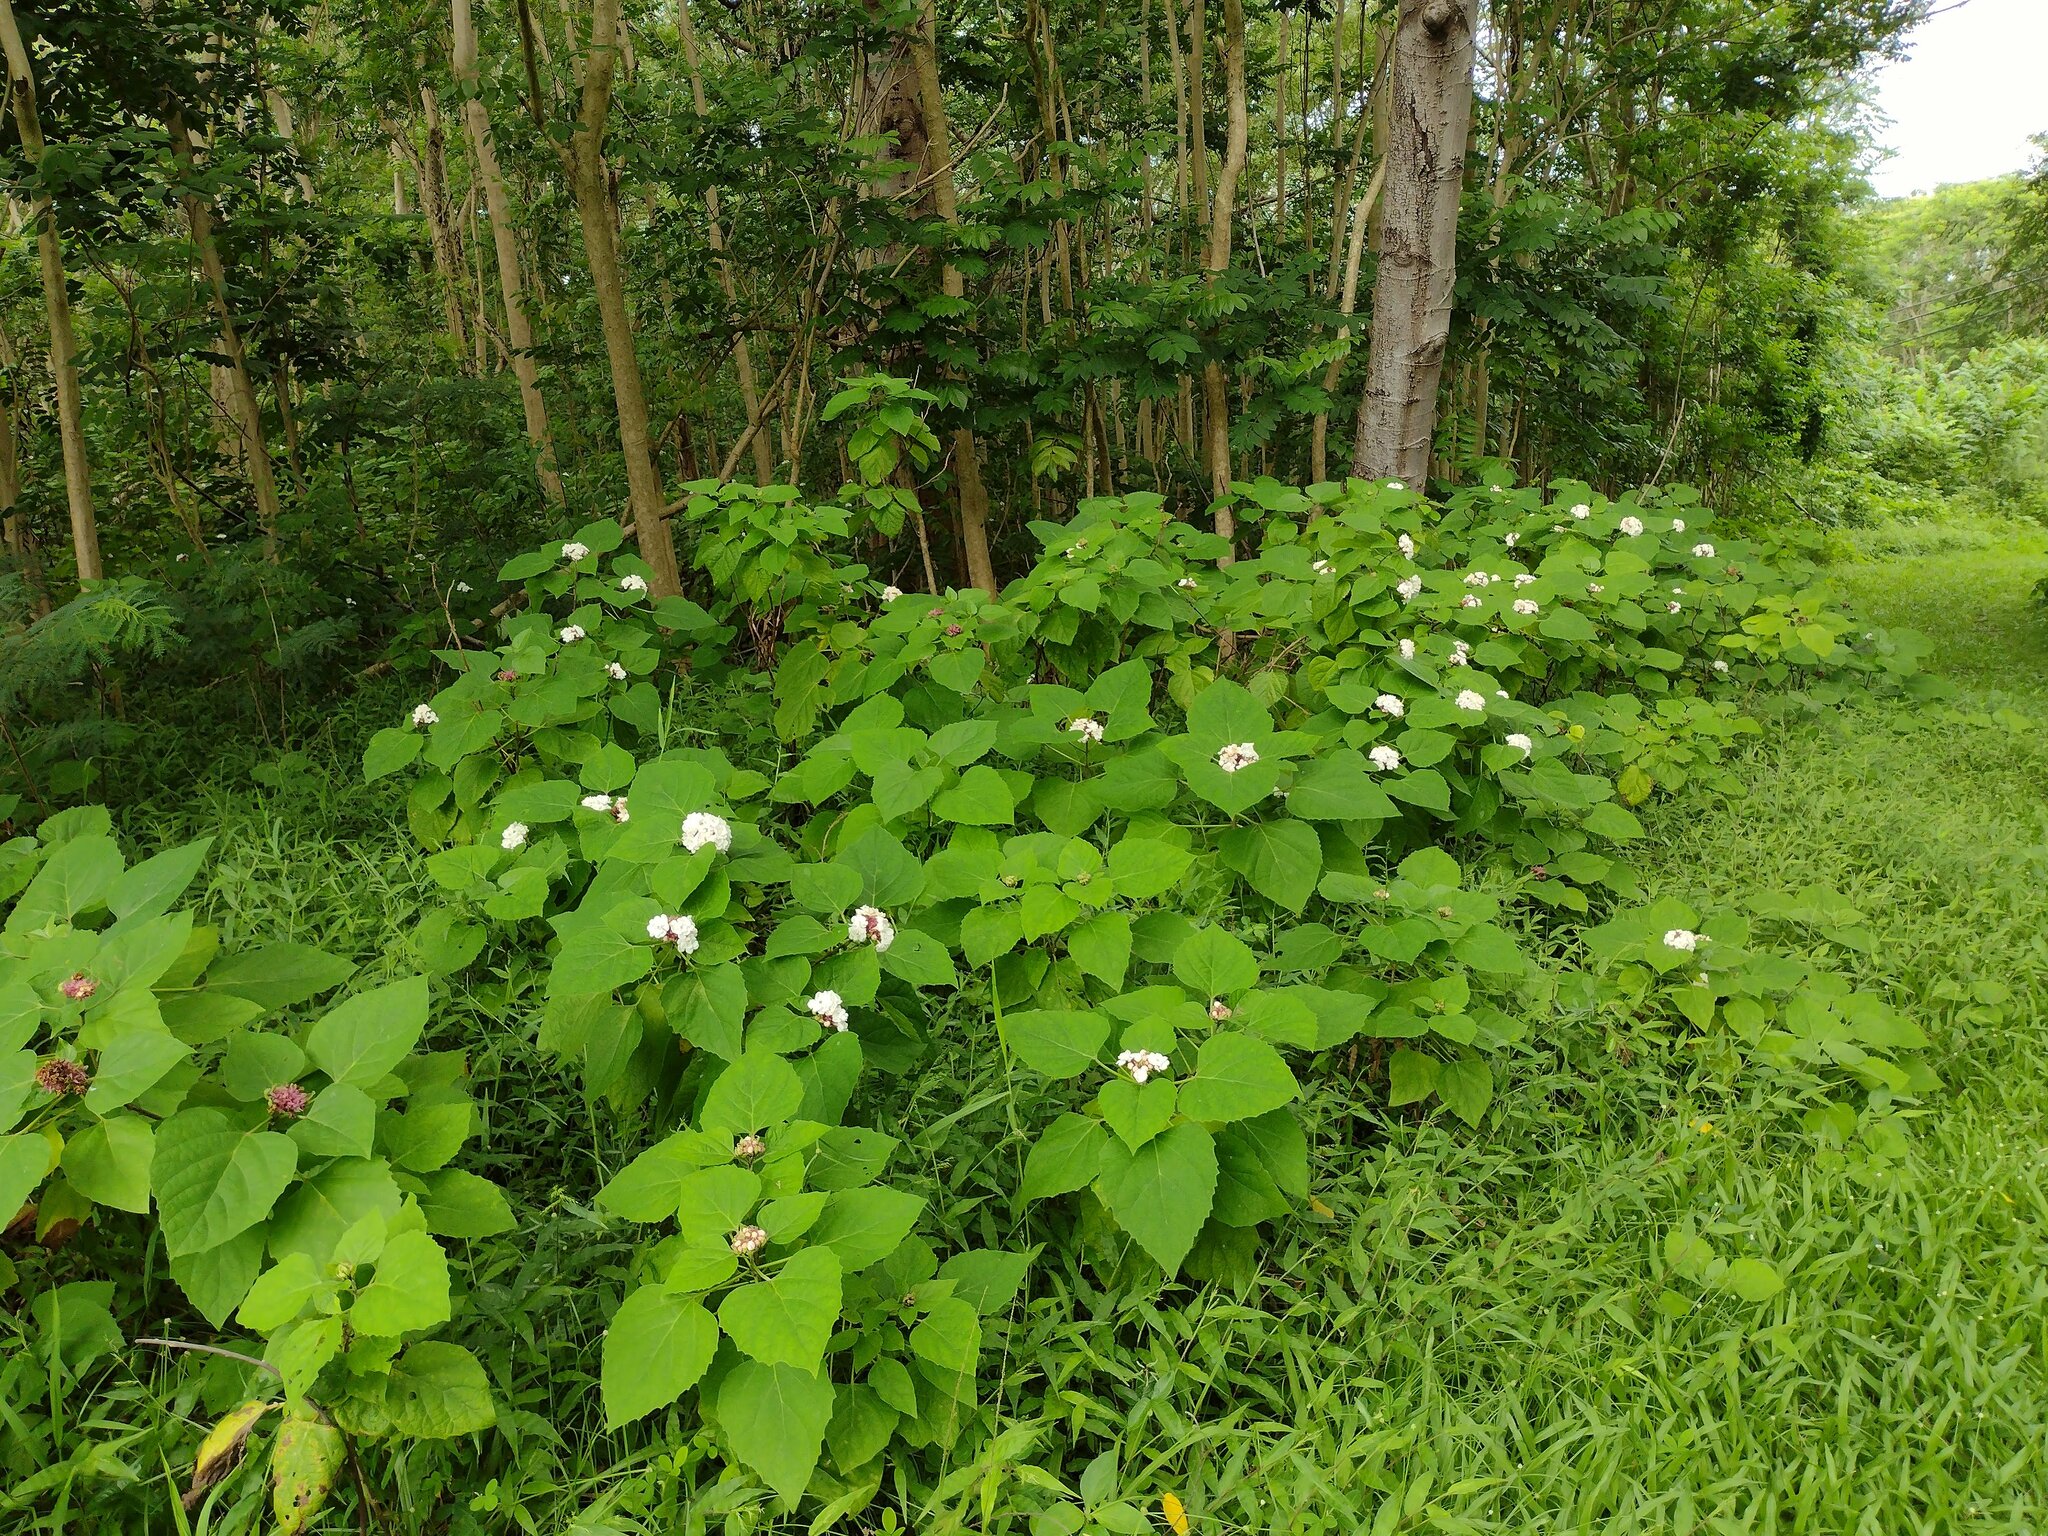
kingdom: Plantae
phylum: Tracheophyta
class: Magnoliopsida
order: Lamiales
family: Lamiaceae
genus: Clerodendrum
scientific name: Clerodendrum chinense
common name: Stickbush
